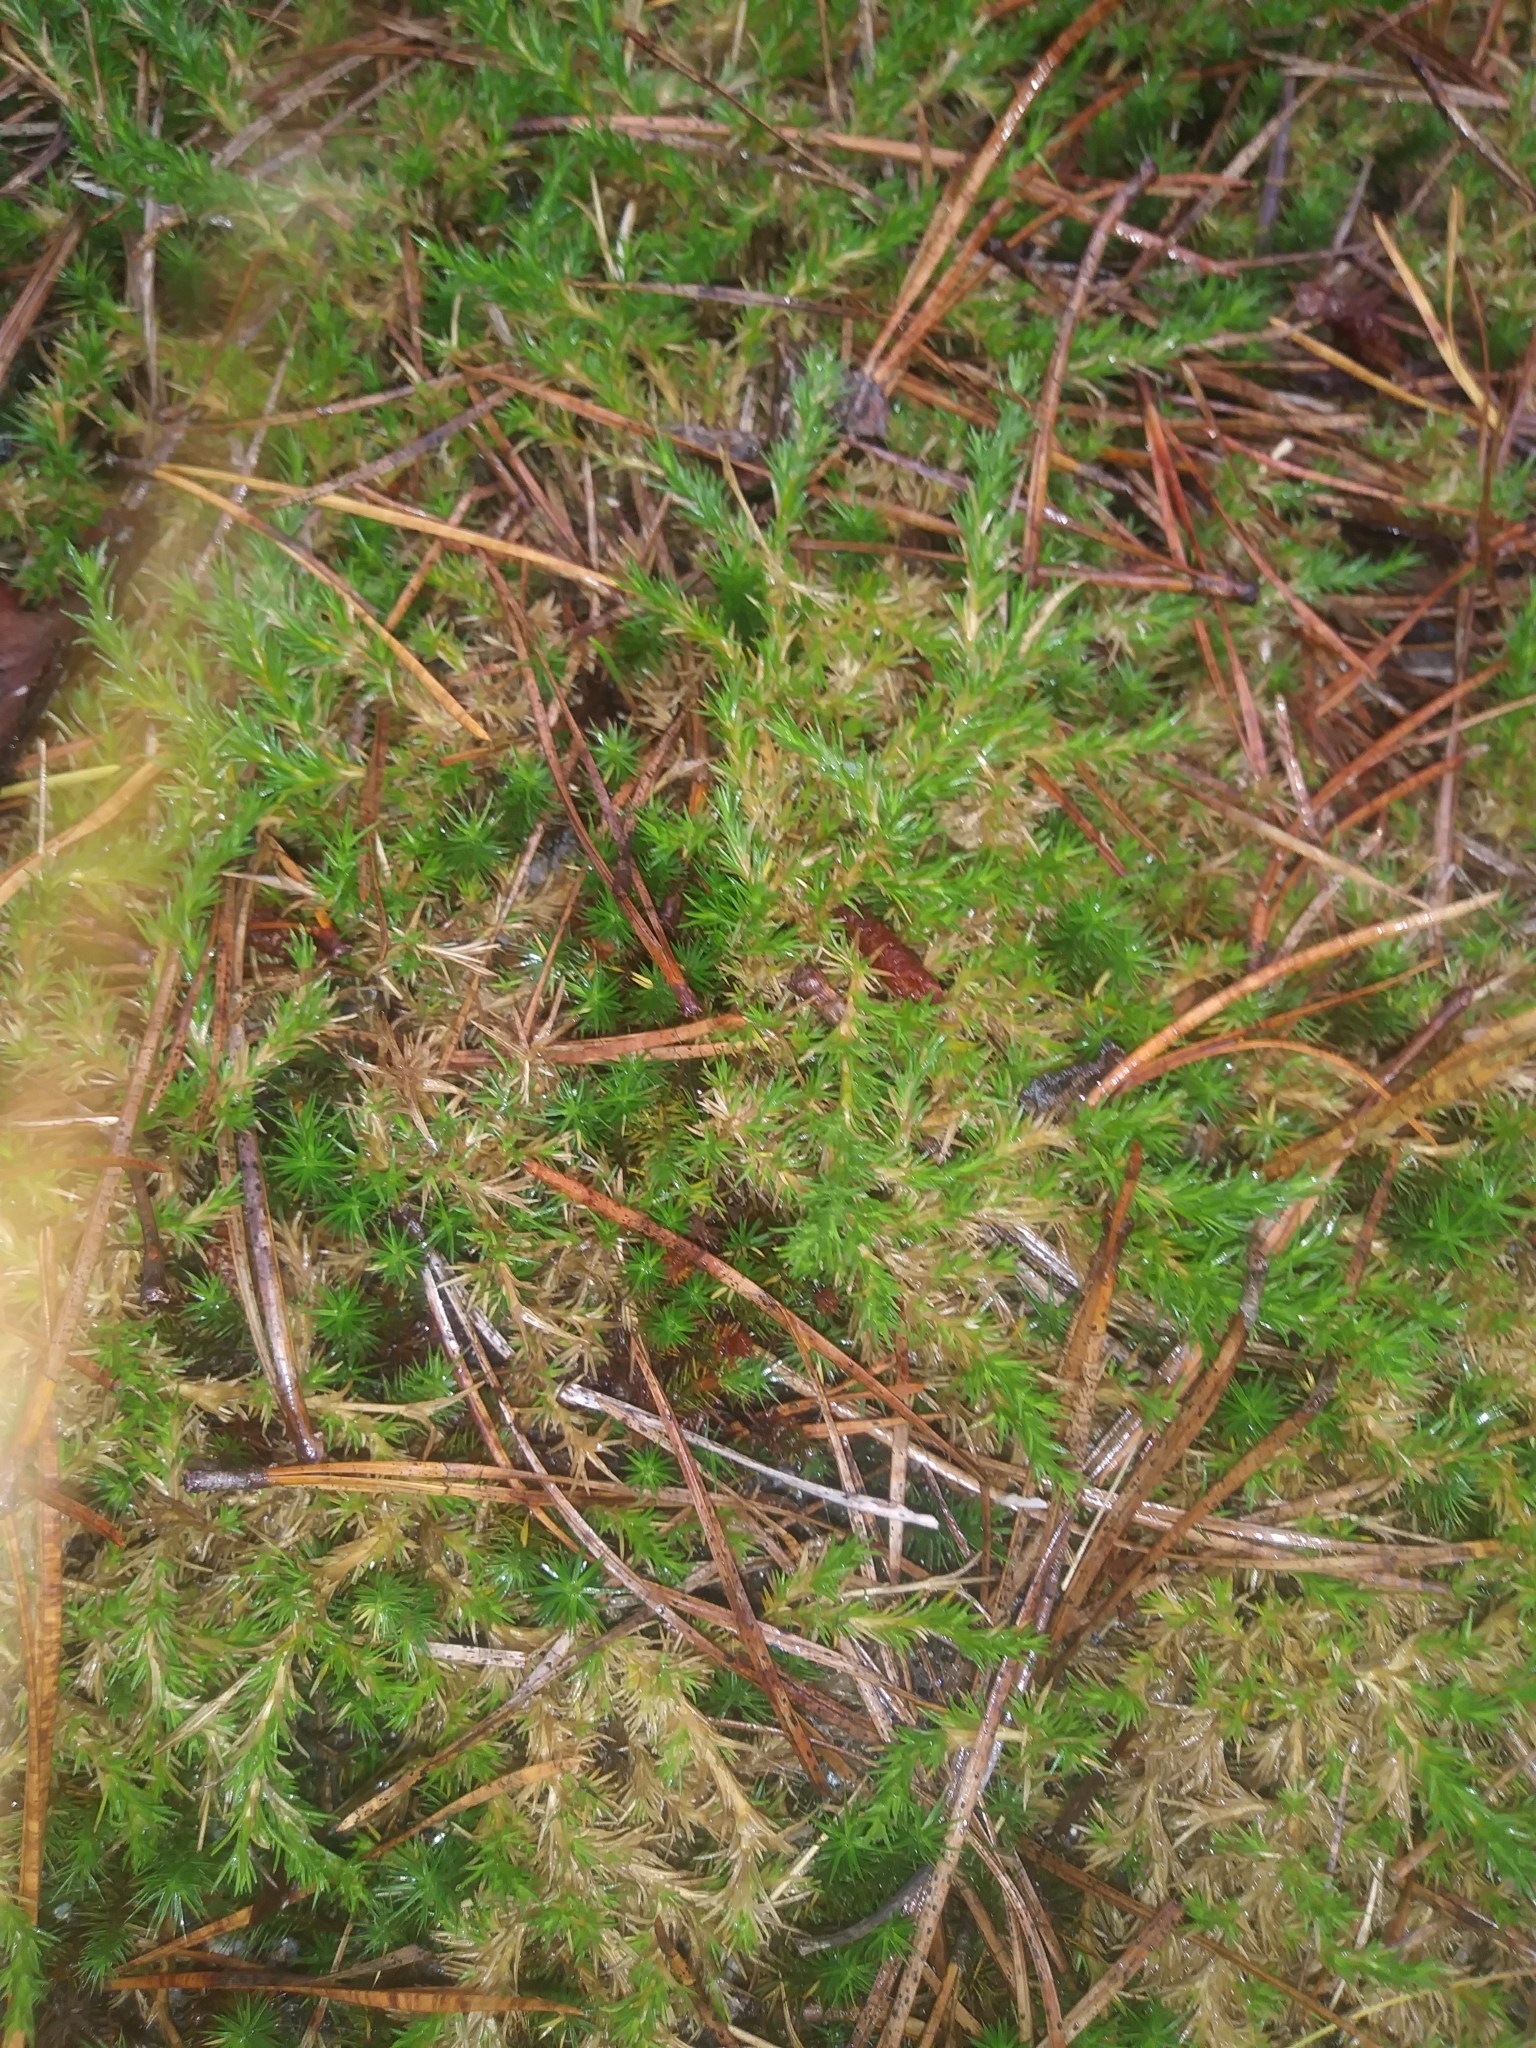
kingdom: Plantae
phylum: Tracheophyta
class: Magnoliopsida
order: Caryophyllales
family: Caryophyllaceae
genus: Geocarpon
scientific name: Geocarpon carolinianum
